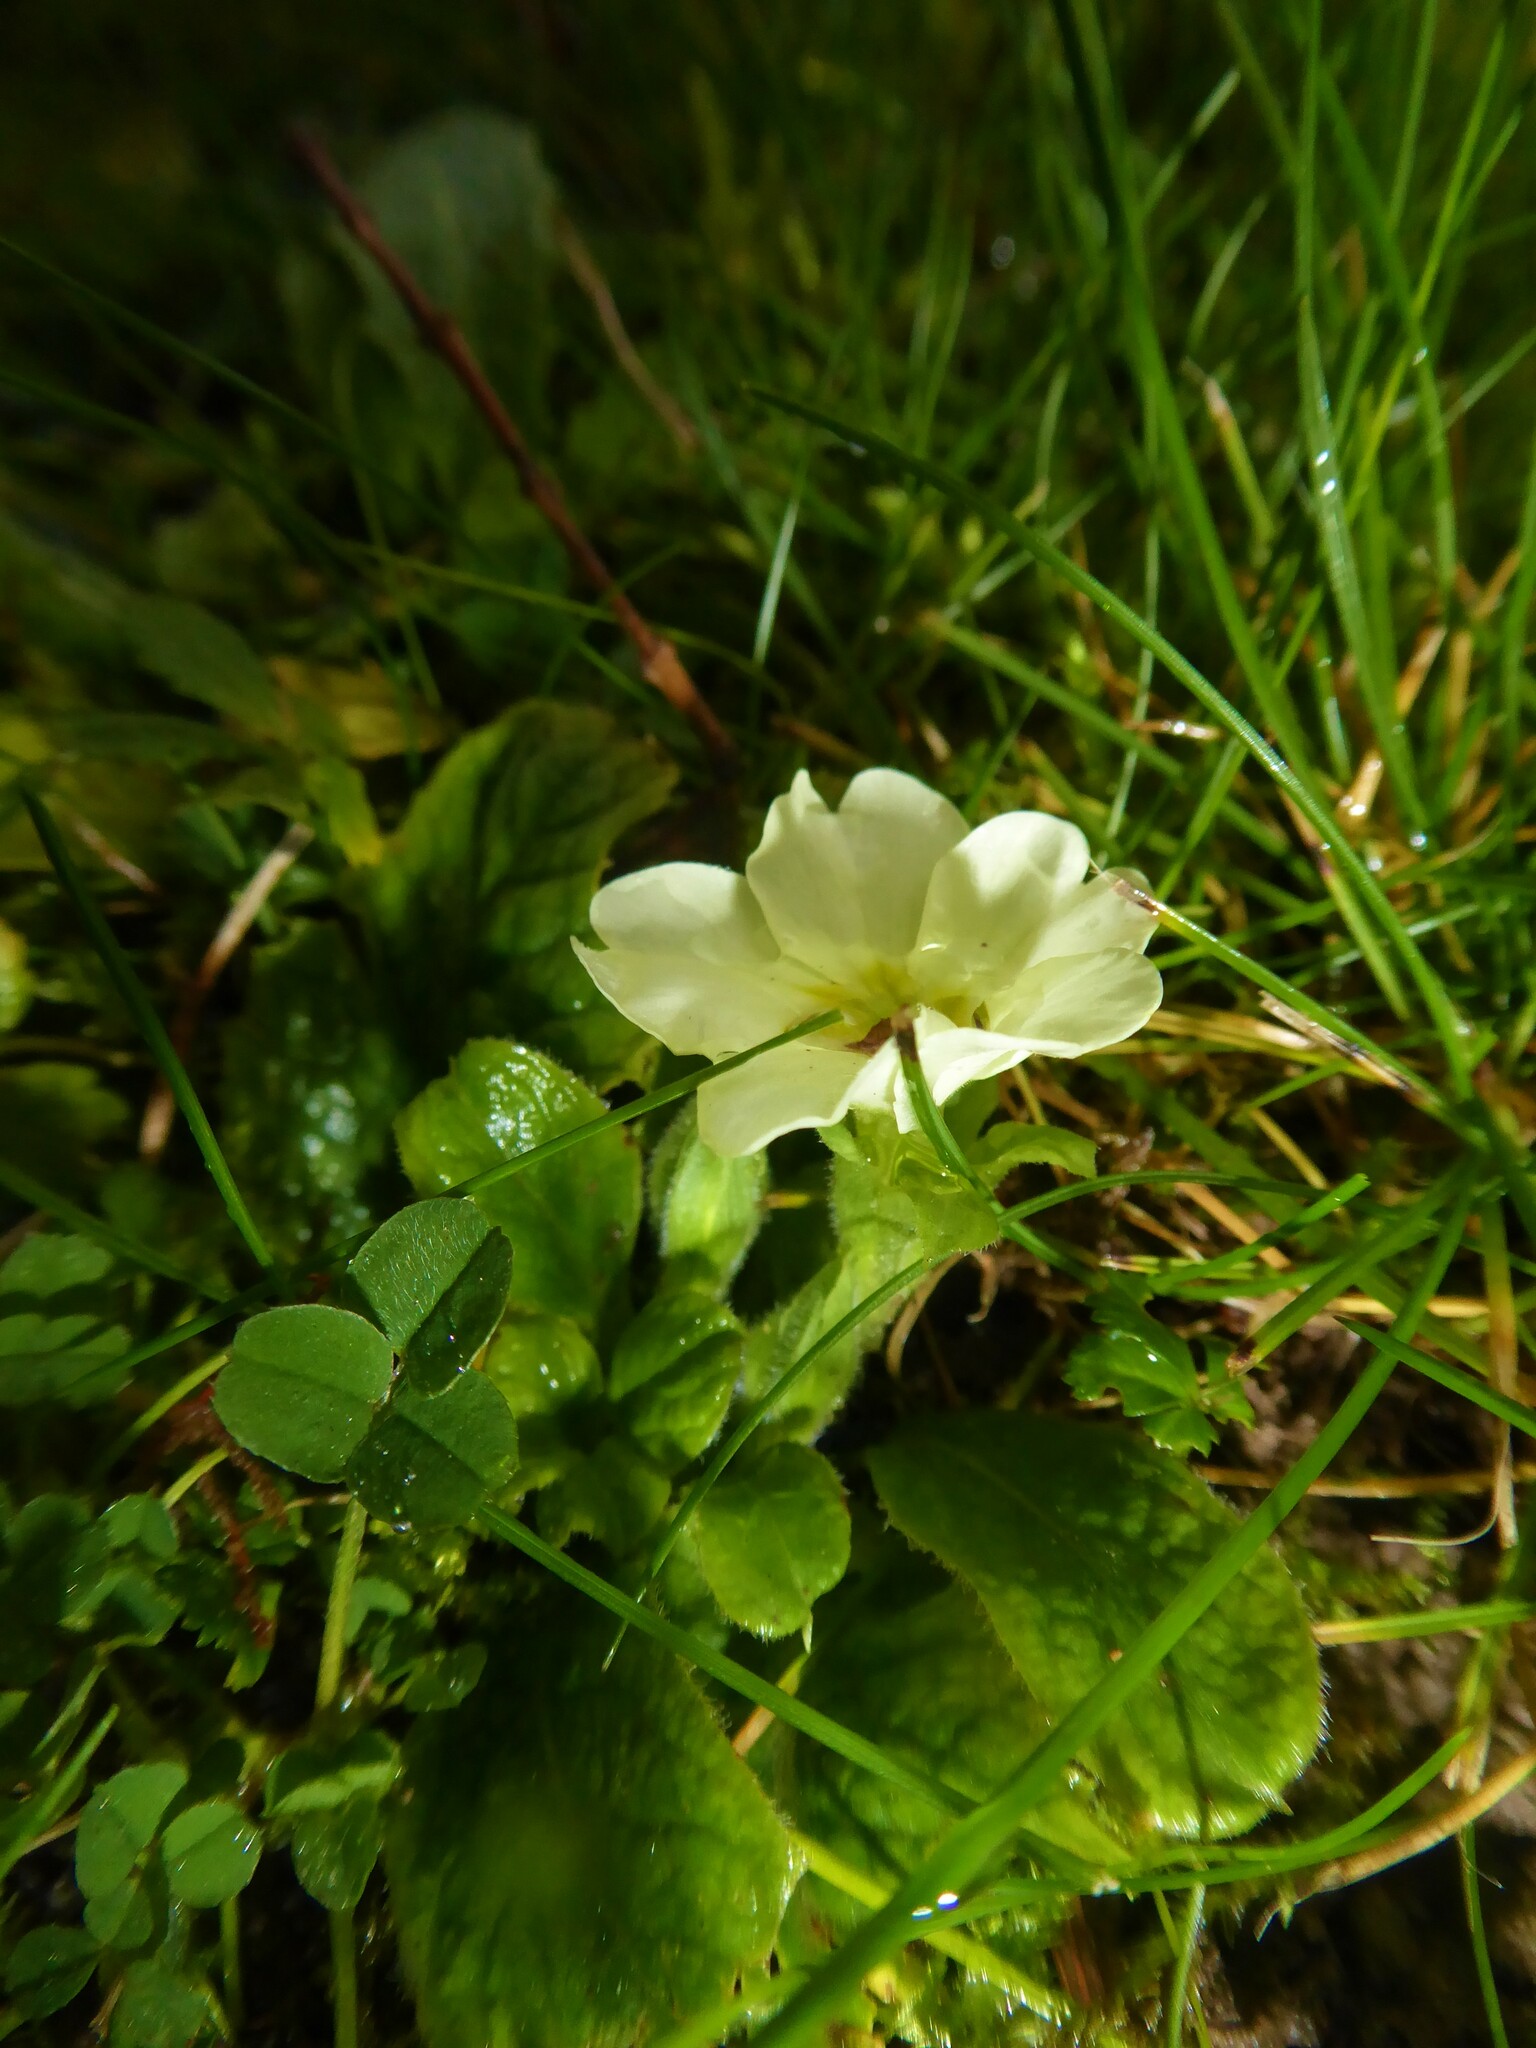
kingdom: Plantae
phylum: Tracheophyta
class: Magnoliopsida
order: Ericales
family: Primulaceae
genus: Primula
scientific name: Primula vulgaris
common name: Primrose
